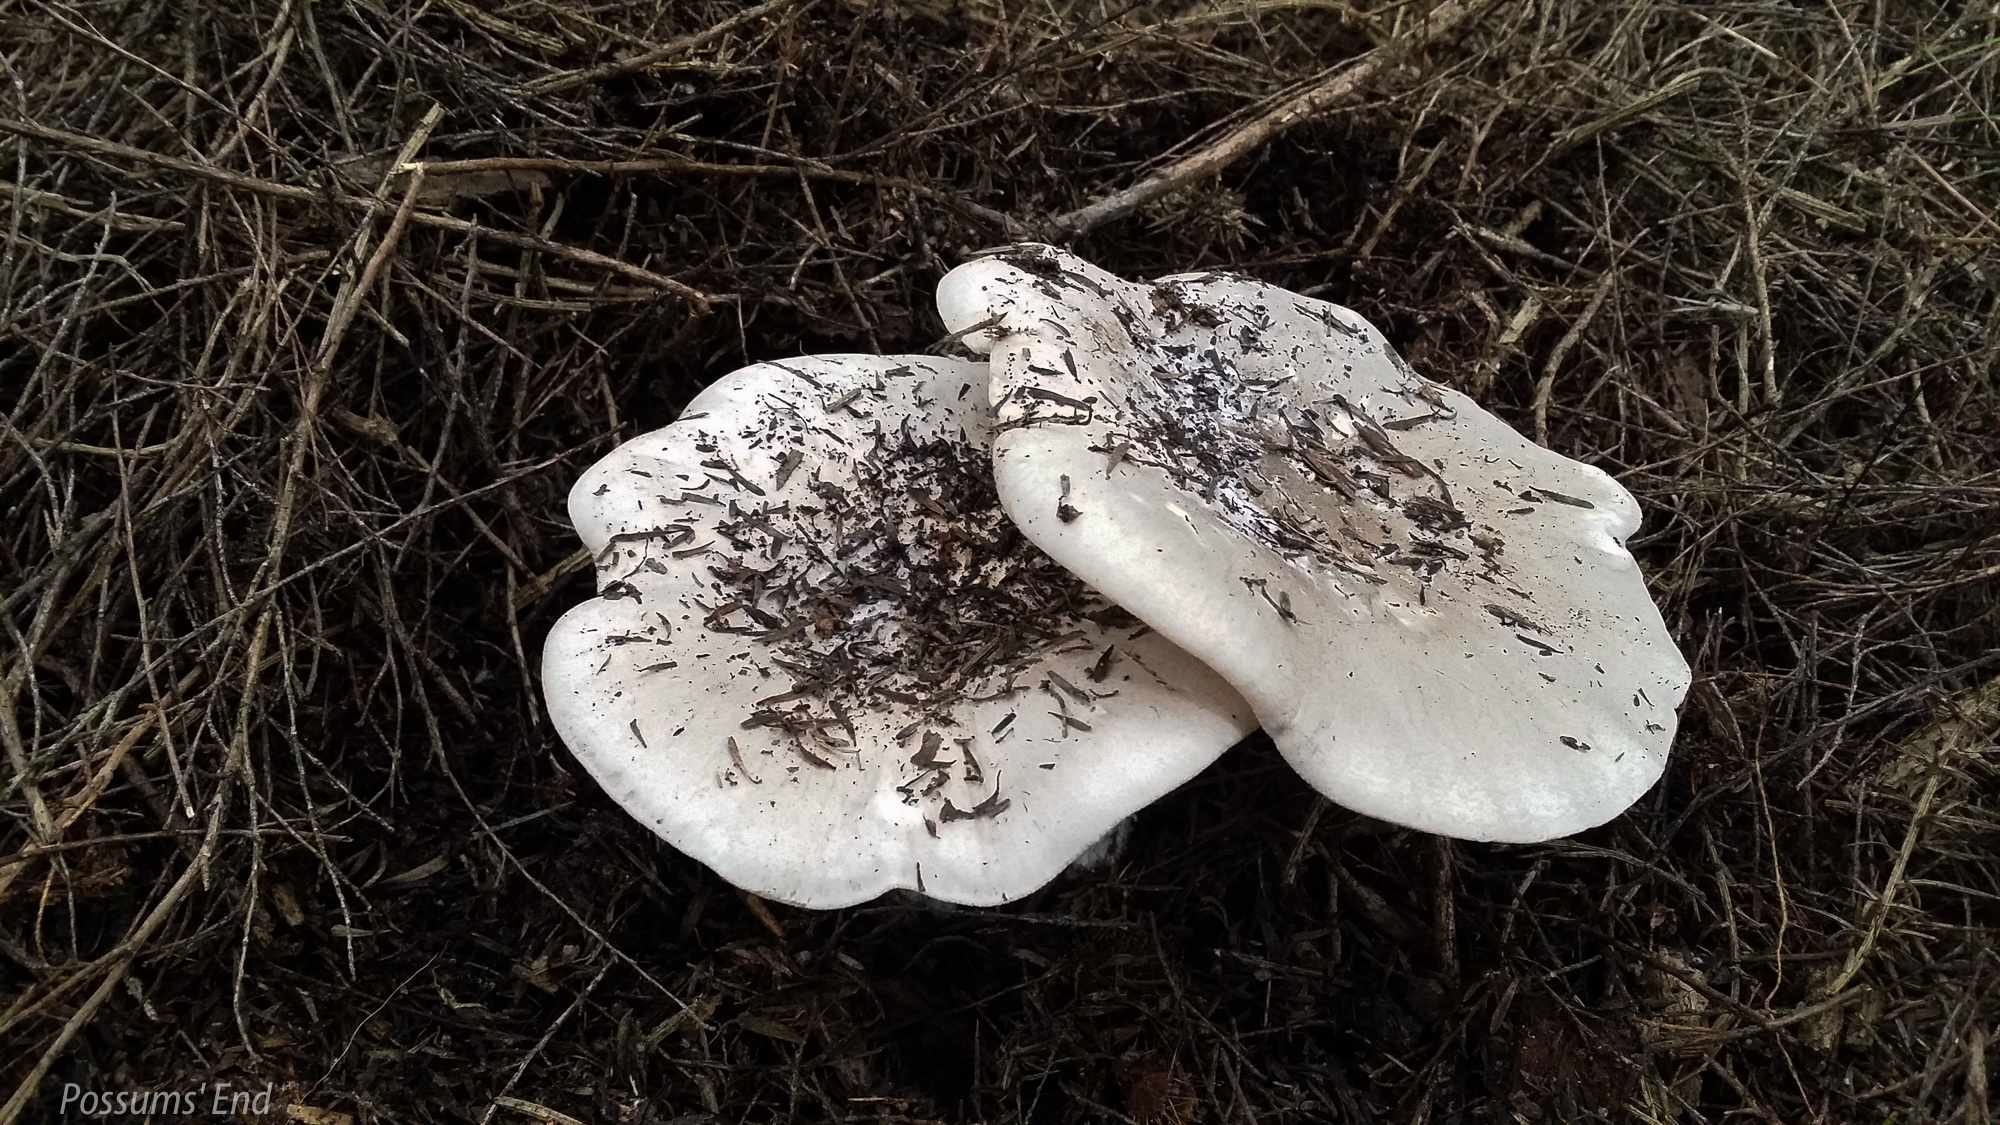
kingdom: Fungi
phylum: Basidiomycota
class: Agaricomycetes
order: Agaricales
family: Tricholomataceae
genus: Clitocybe
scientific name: Clitocybe nebularis
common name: Clouded agaric
